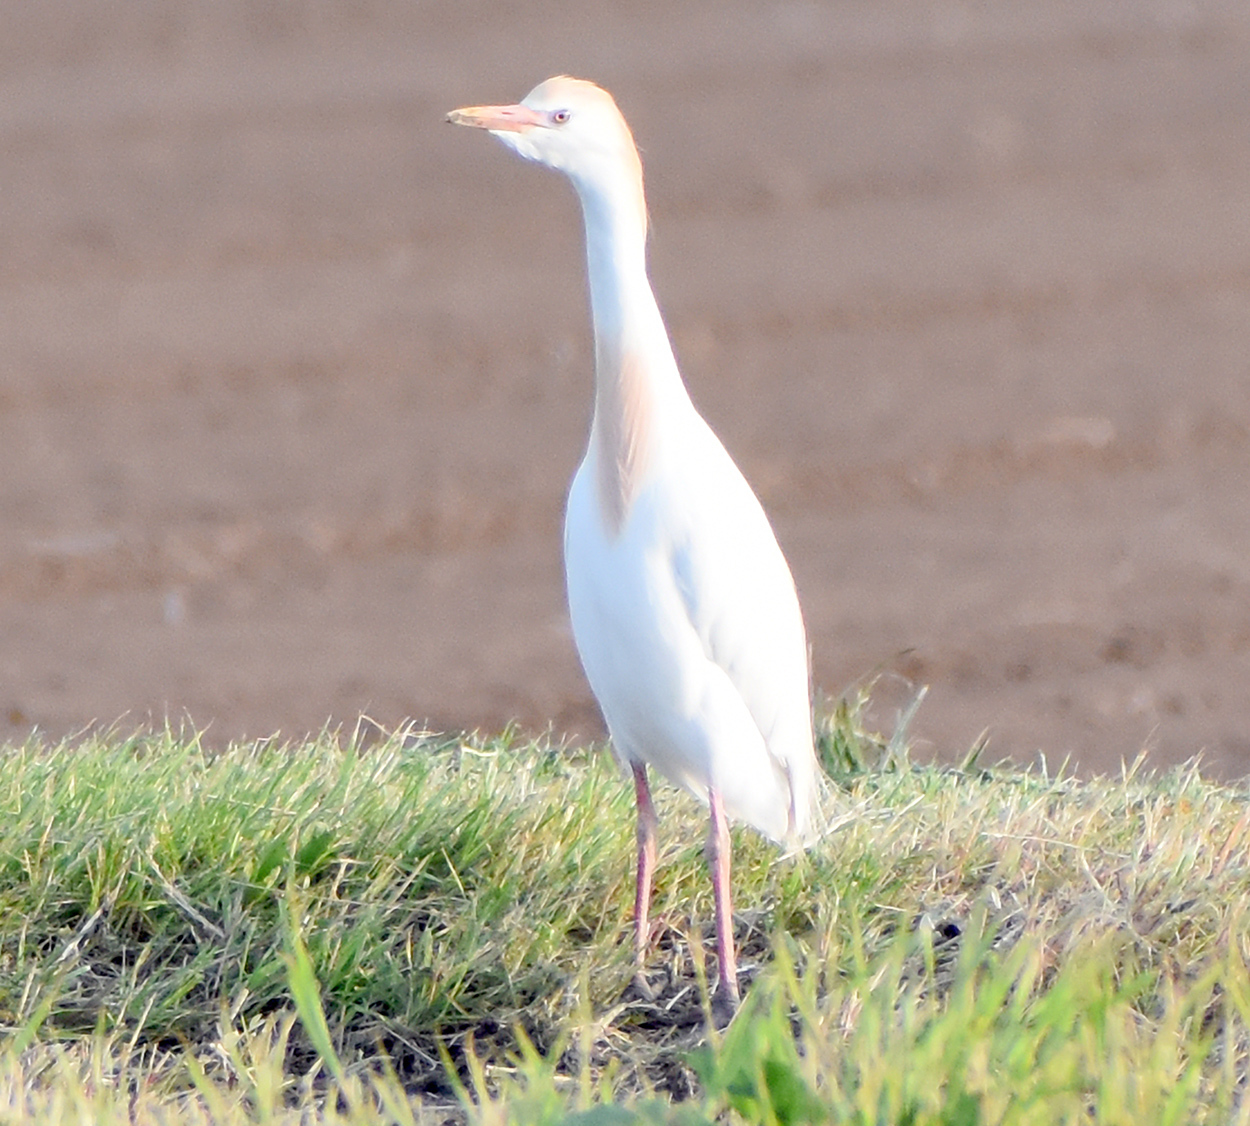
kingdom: Animalia
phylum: Chordata
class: Aves
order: Pelecaniformes
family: Ardeidae
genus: Bubulcus
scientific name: Bubulcus ibis
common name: Cattle egret
